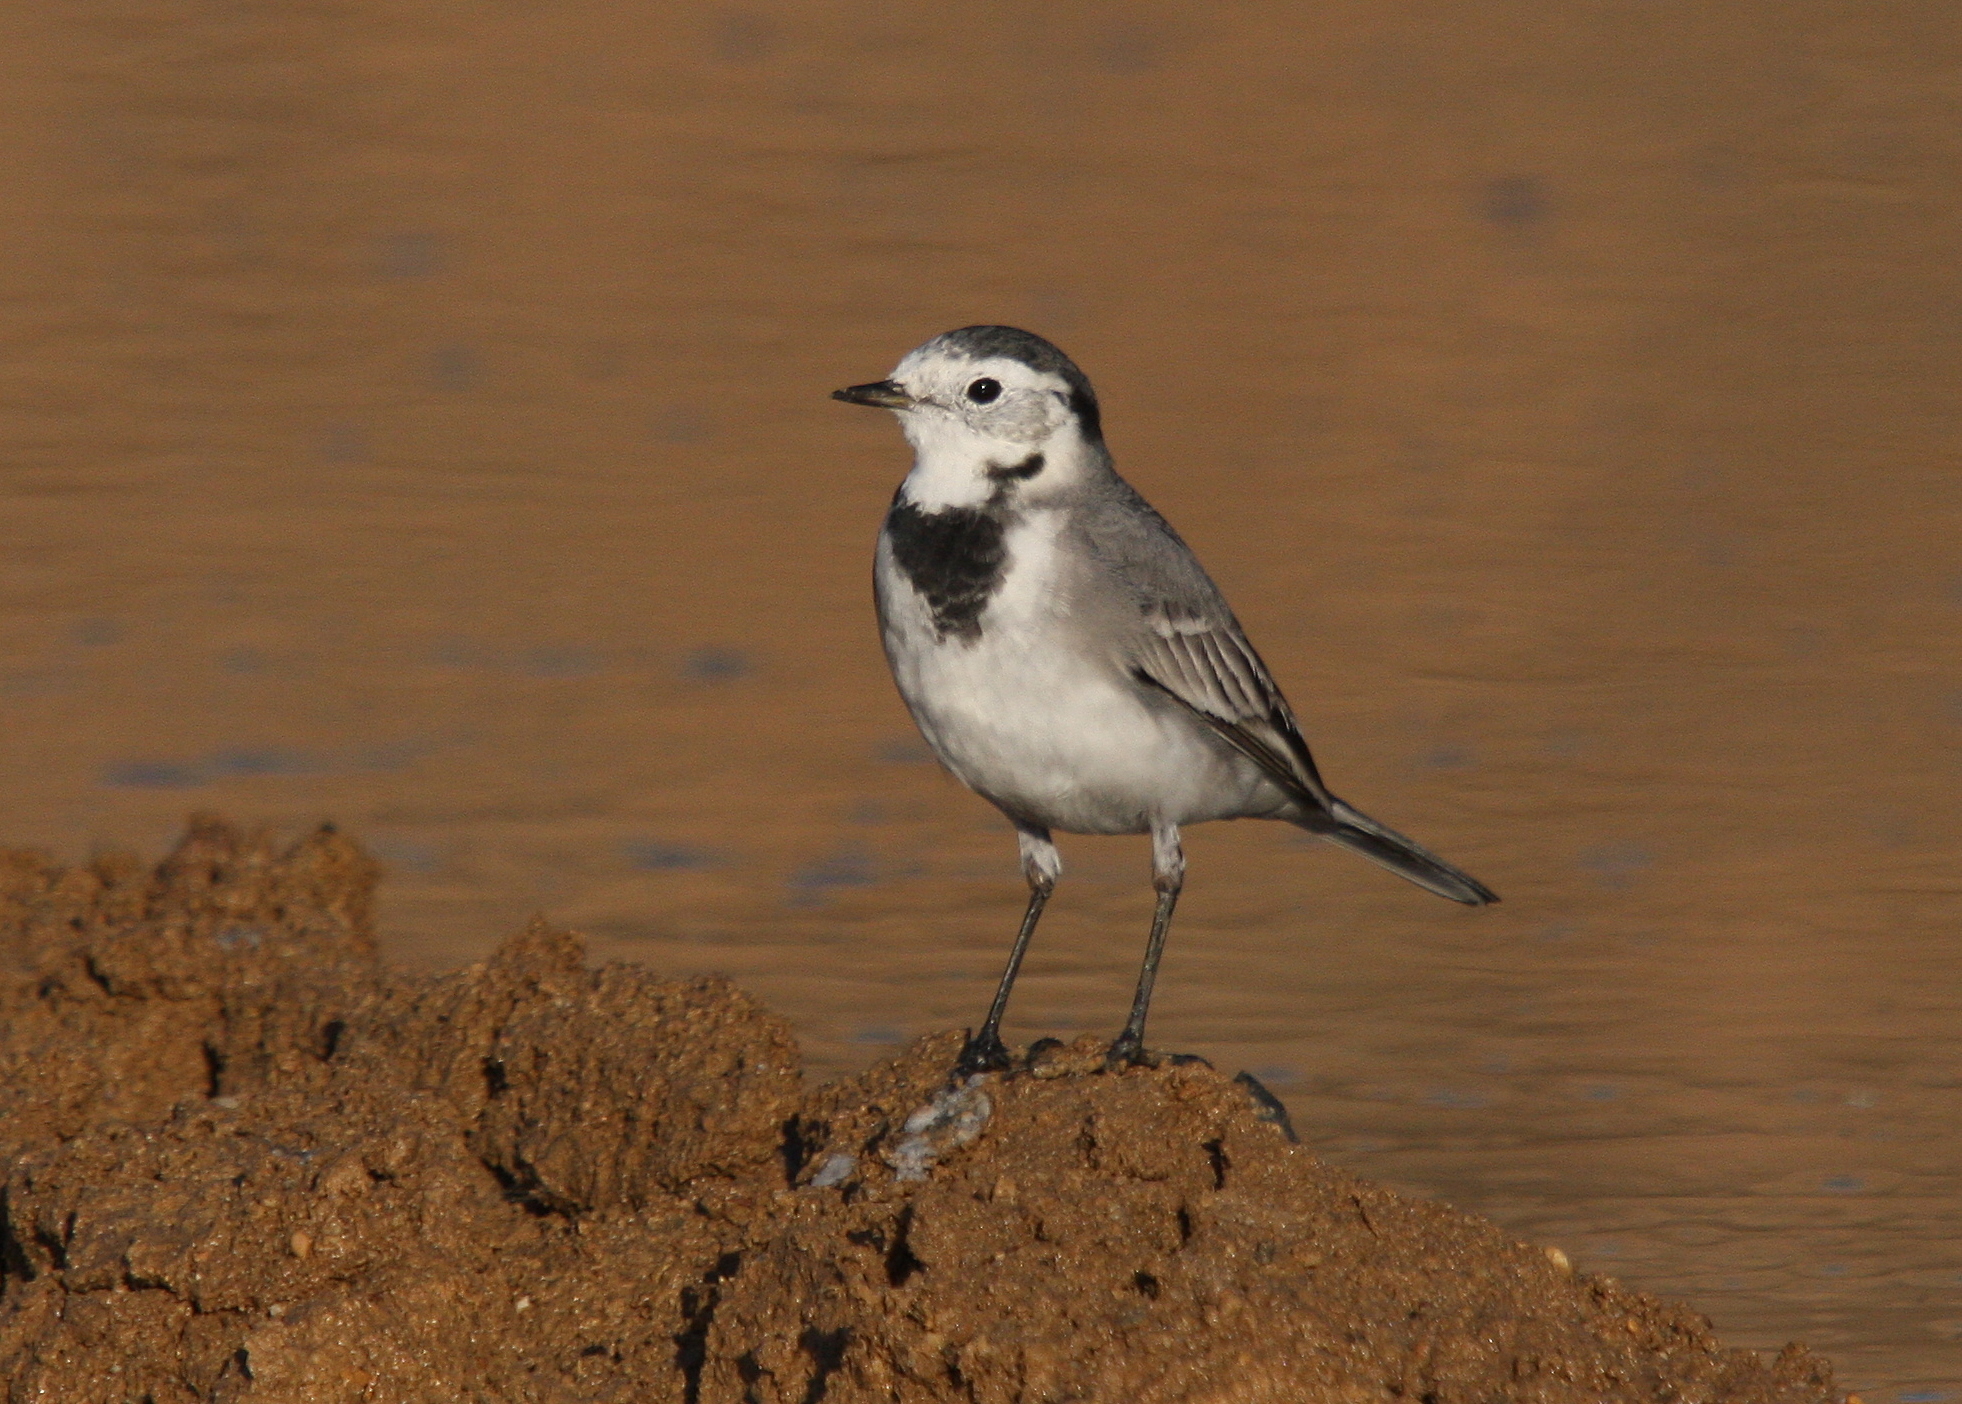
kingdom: Animalia
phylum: Chordata
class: Aves
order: Passeriformes
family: Motacillidae
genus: Motacilla
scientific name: Motacilla alba
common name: White wagtail
